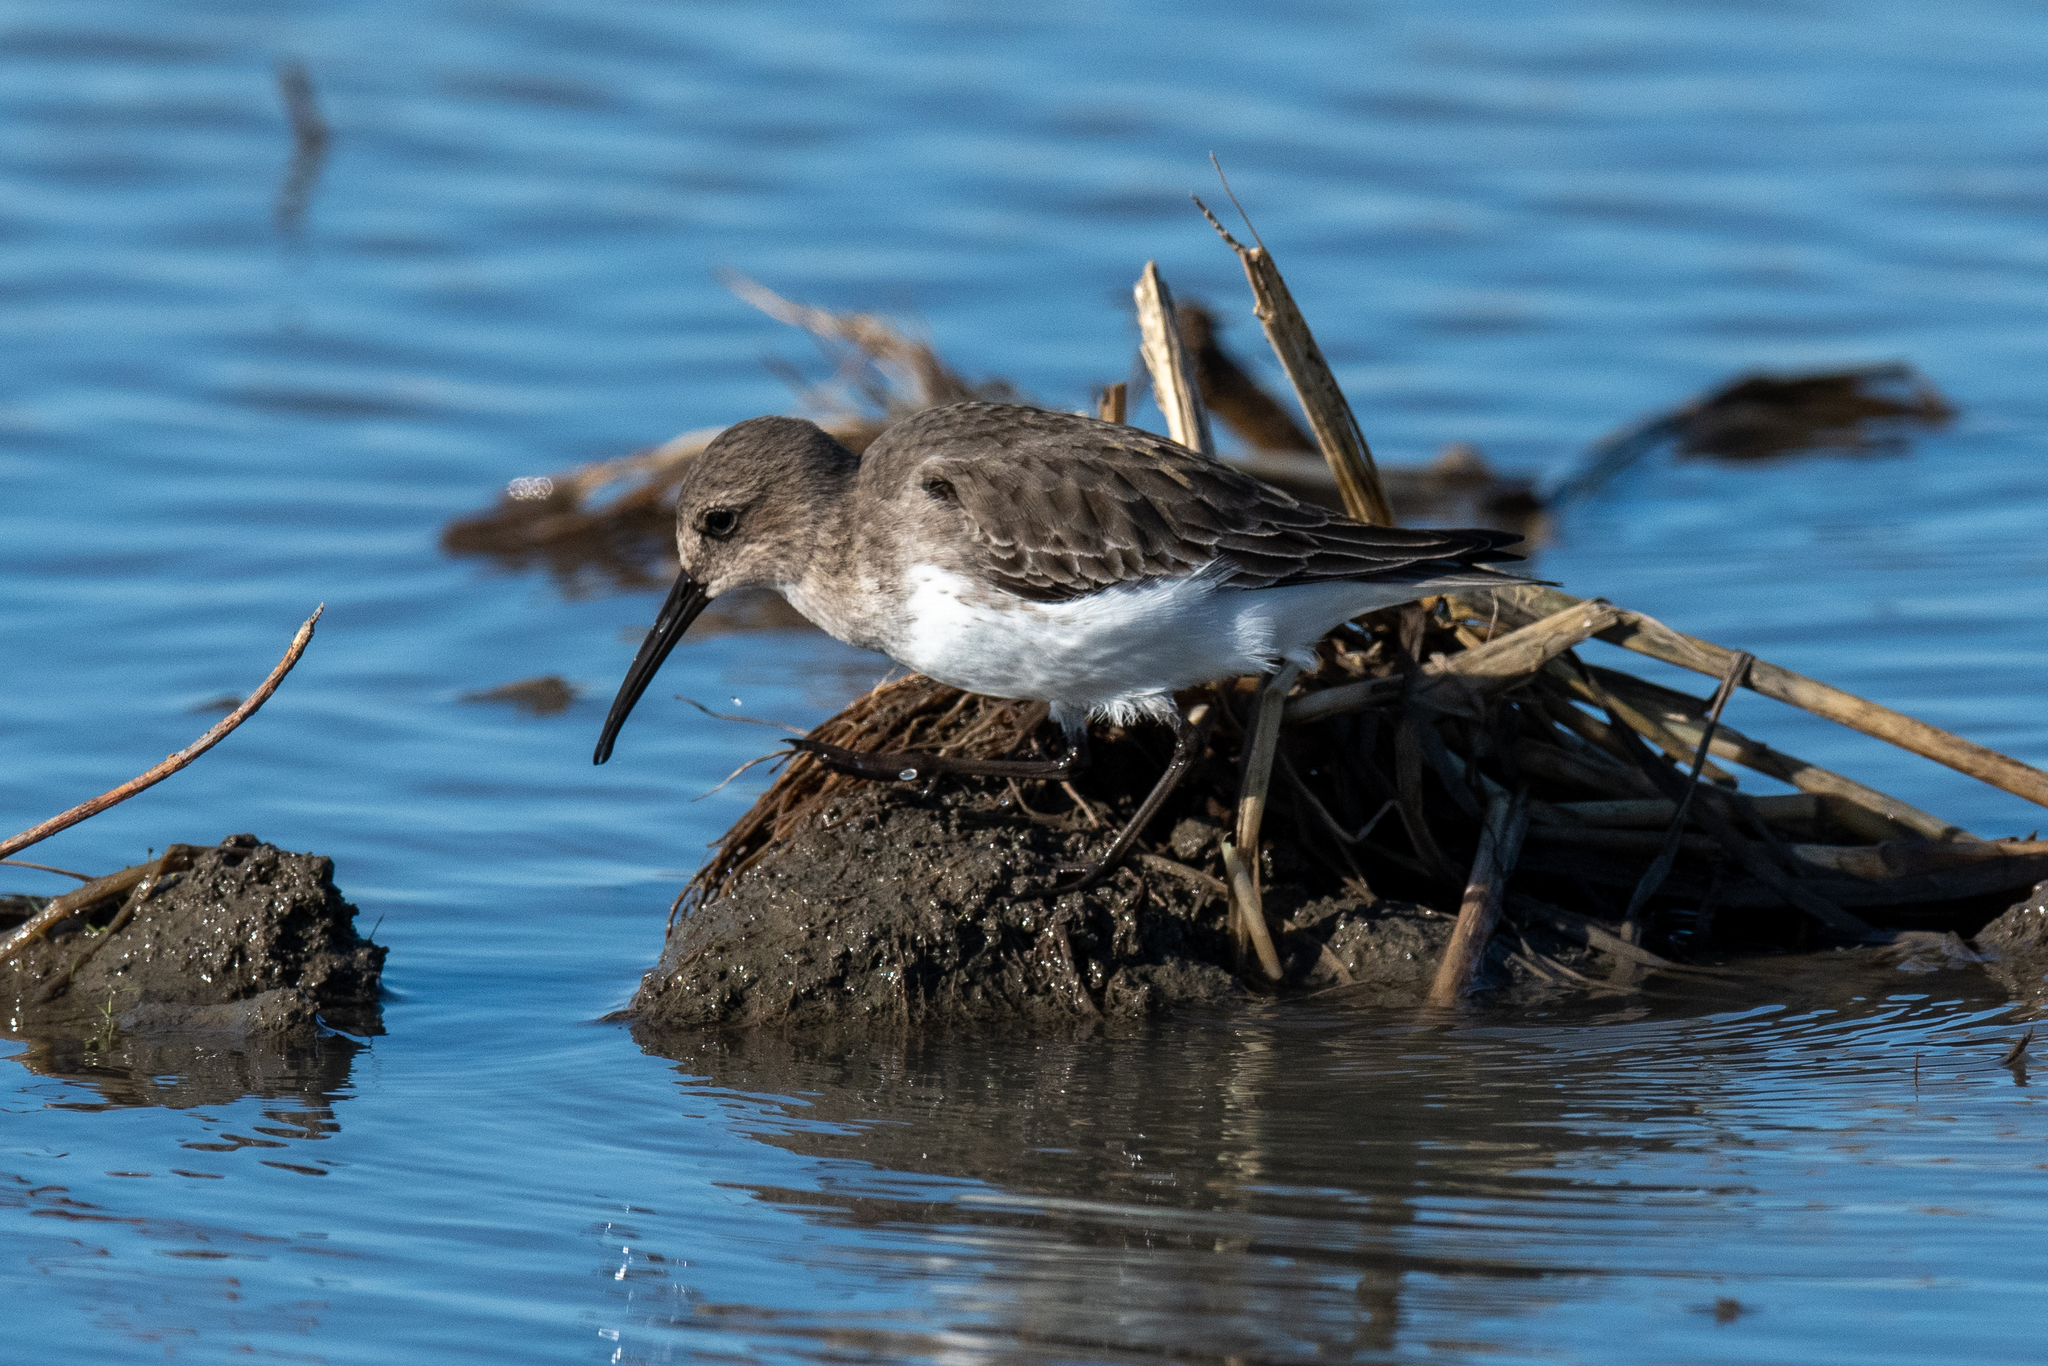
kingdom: Animalia
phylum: Chordata
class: Aves
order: Charadriiformes
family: Scolopacidae
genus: Calidris
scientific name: Calidris alpina
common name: Dunlin
